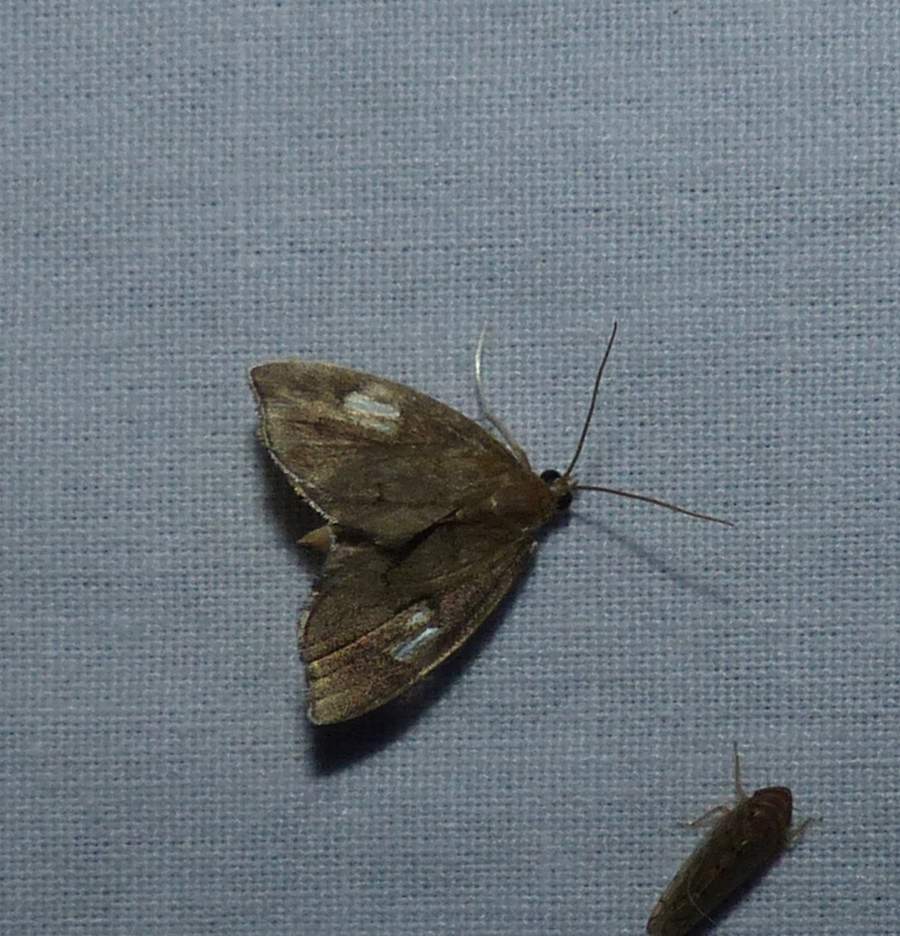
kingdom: Animalia
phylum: Arthropoda
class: Insecta
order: Lepidoptera
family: Crambidae
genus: Perispasta
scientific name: Perispasta caeculalis
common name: Titian peale's moth
